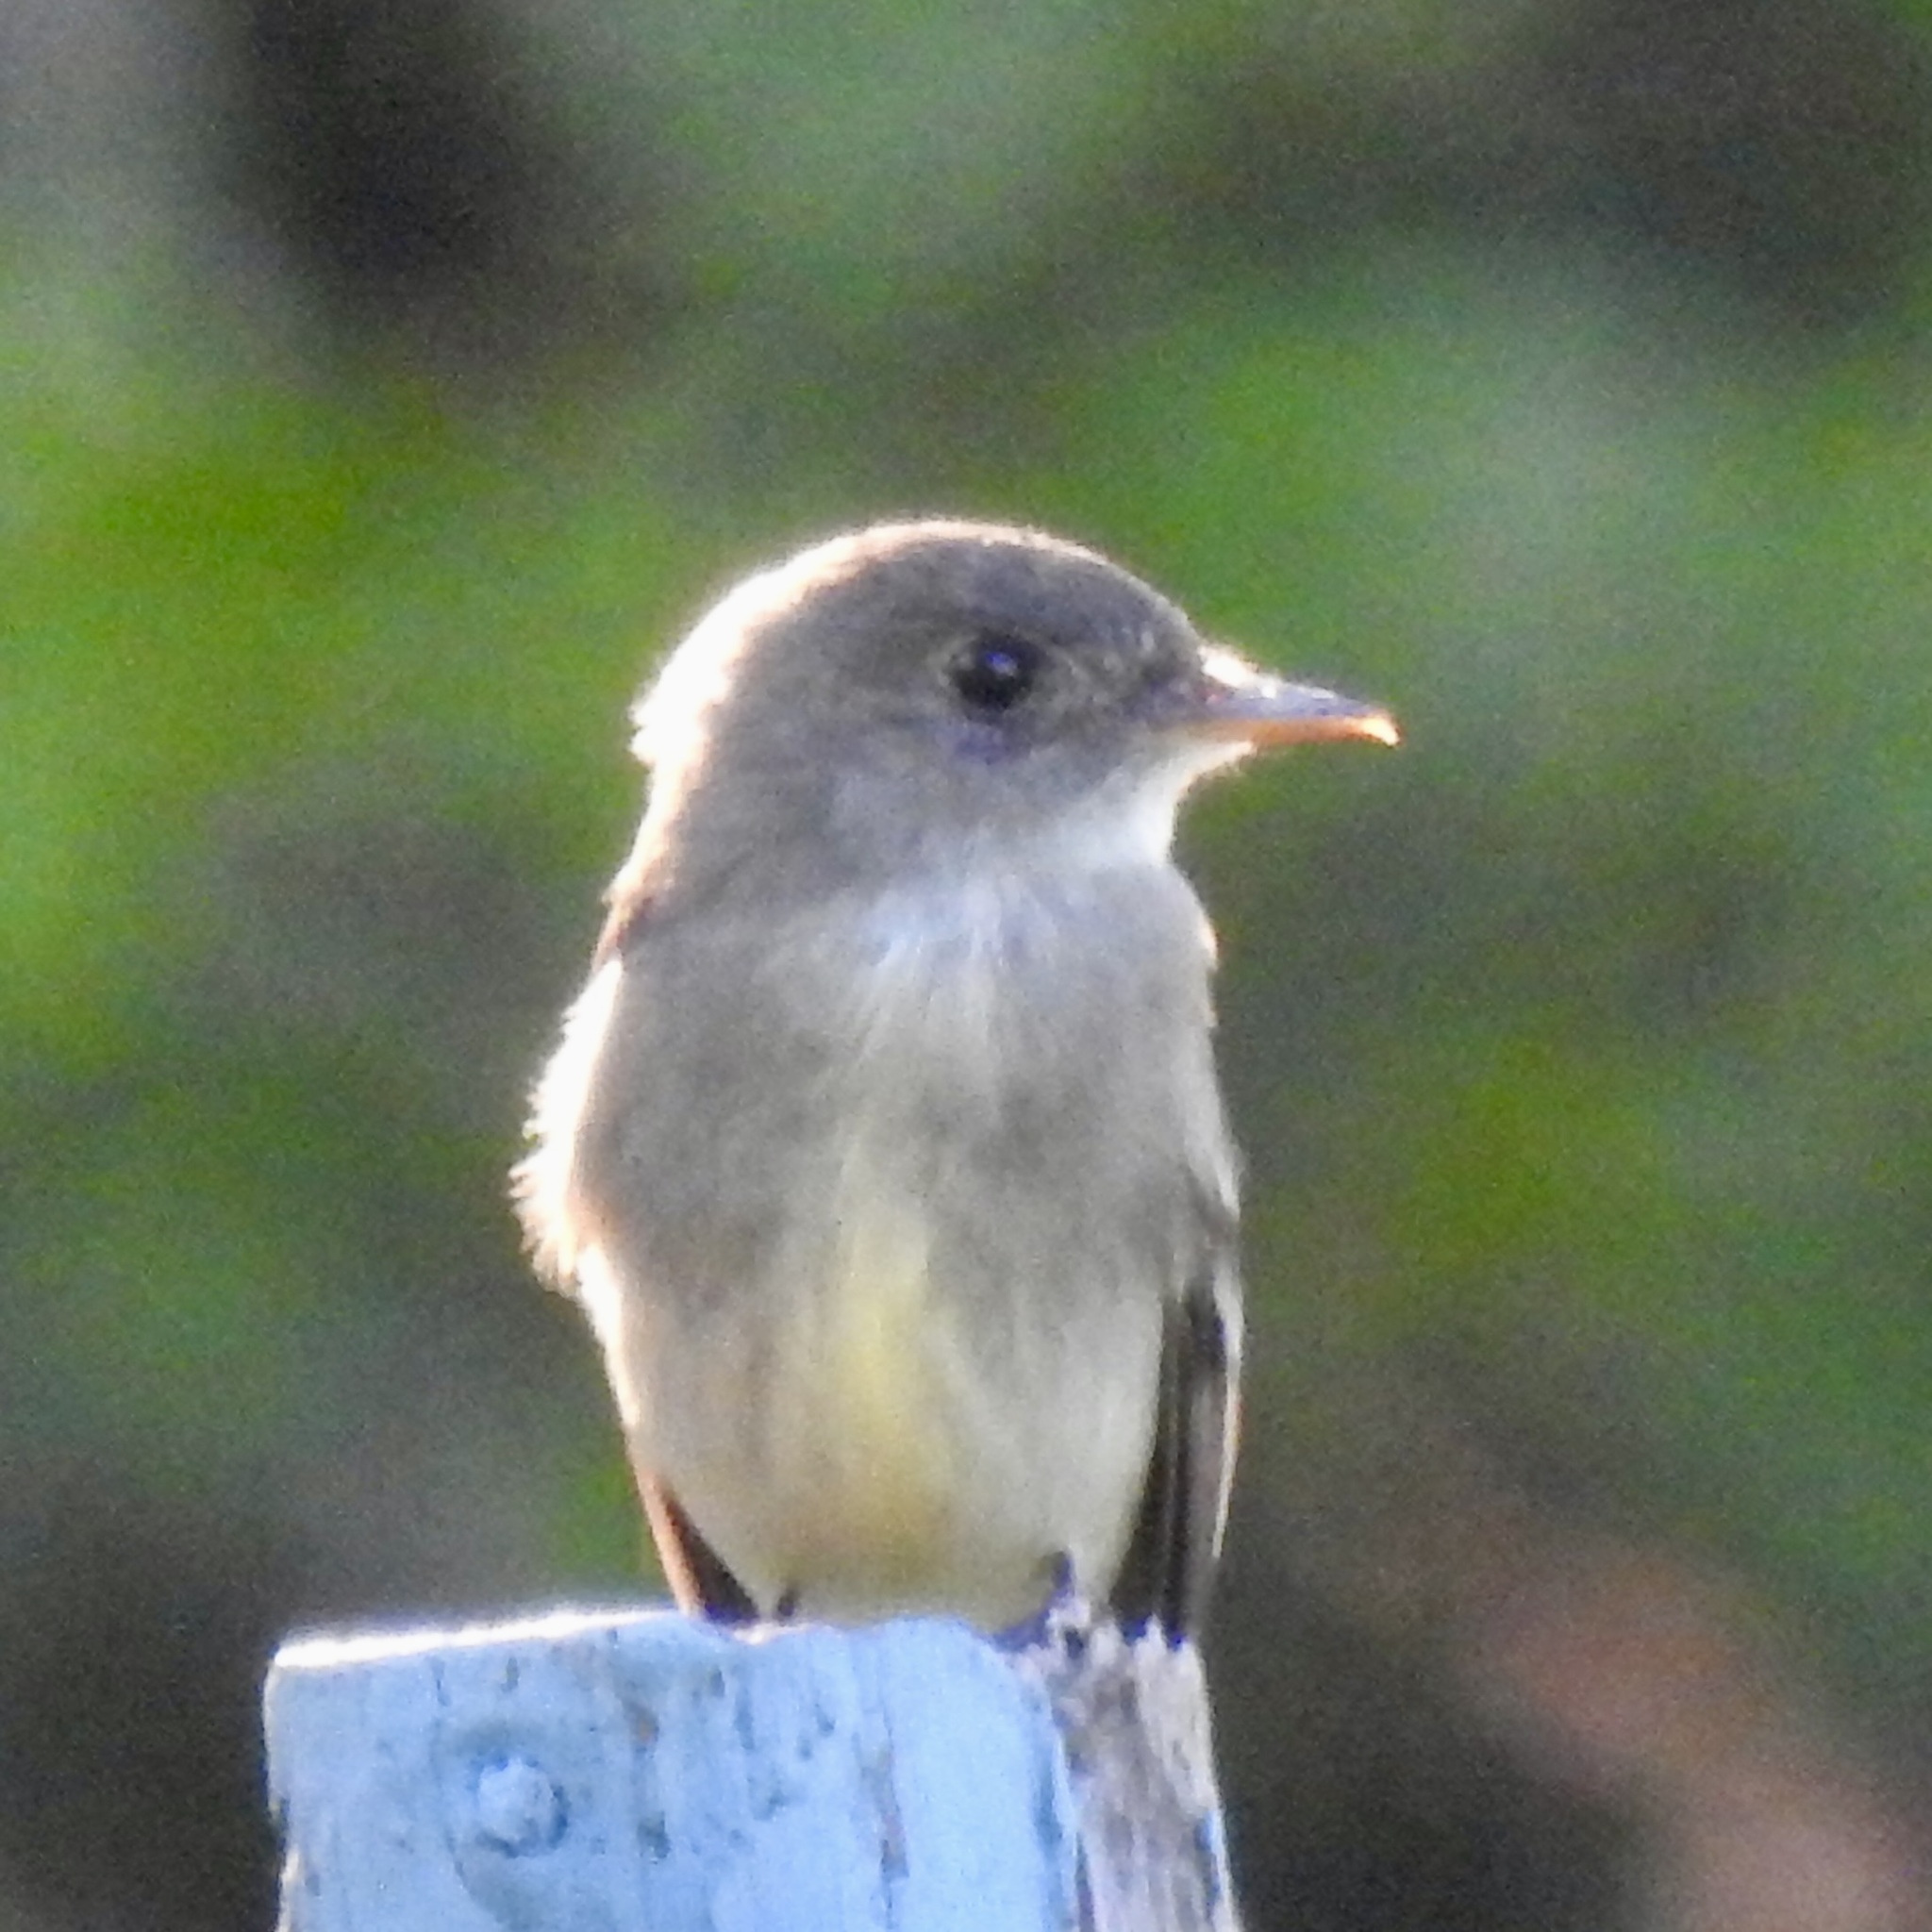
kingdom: Animalia
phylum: Chordata
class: Aves
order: Passeriformes
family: Tyrannidae
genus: Contopus
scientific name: Contopus virens
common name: Eastern wood-pewee
